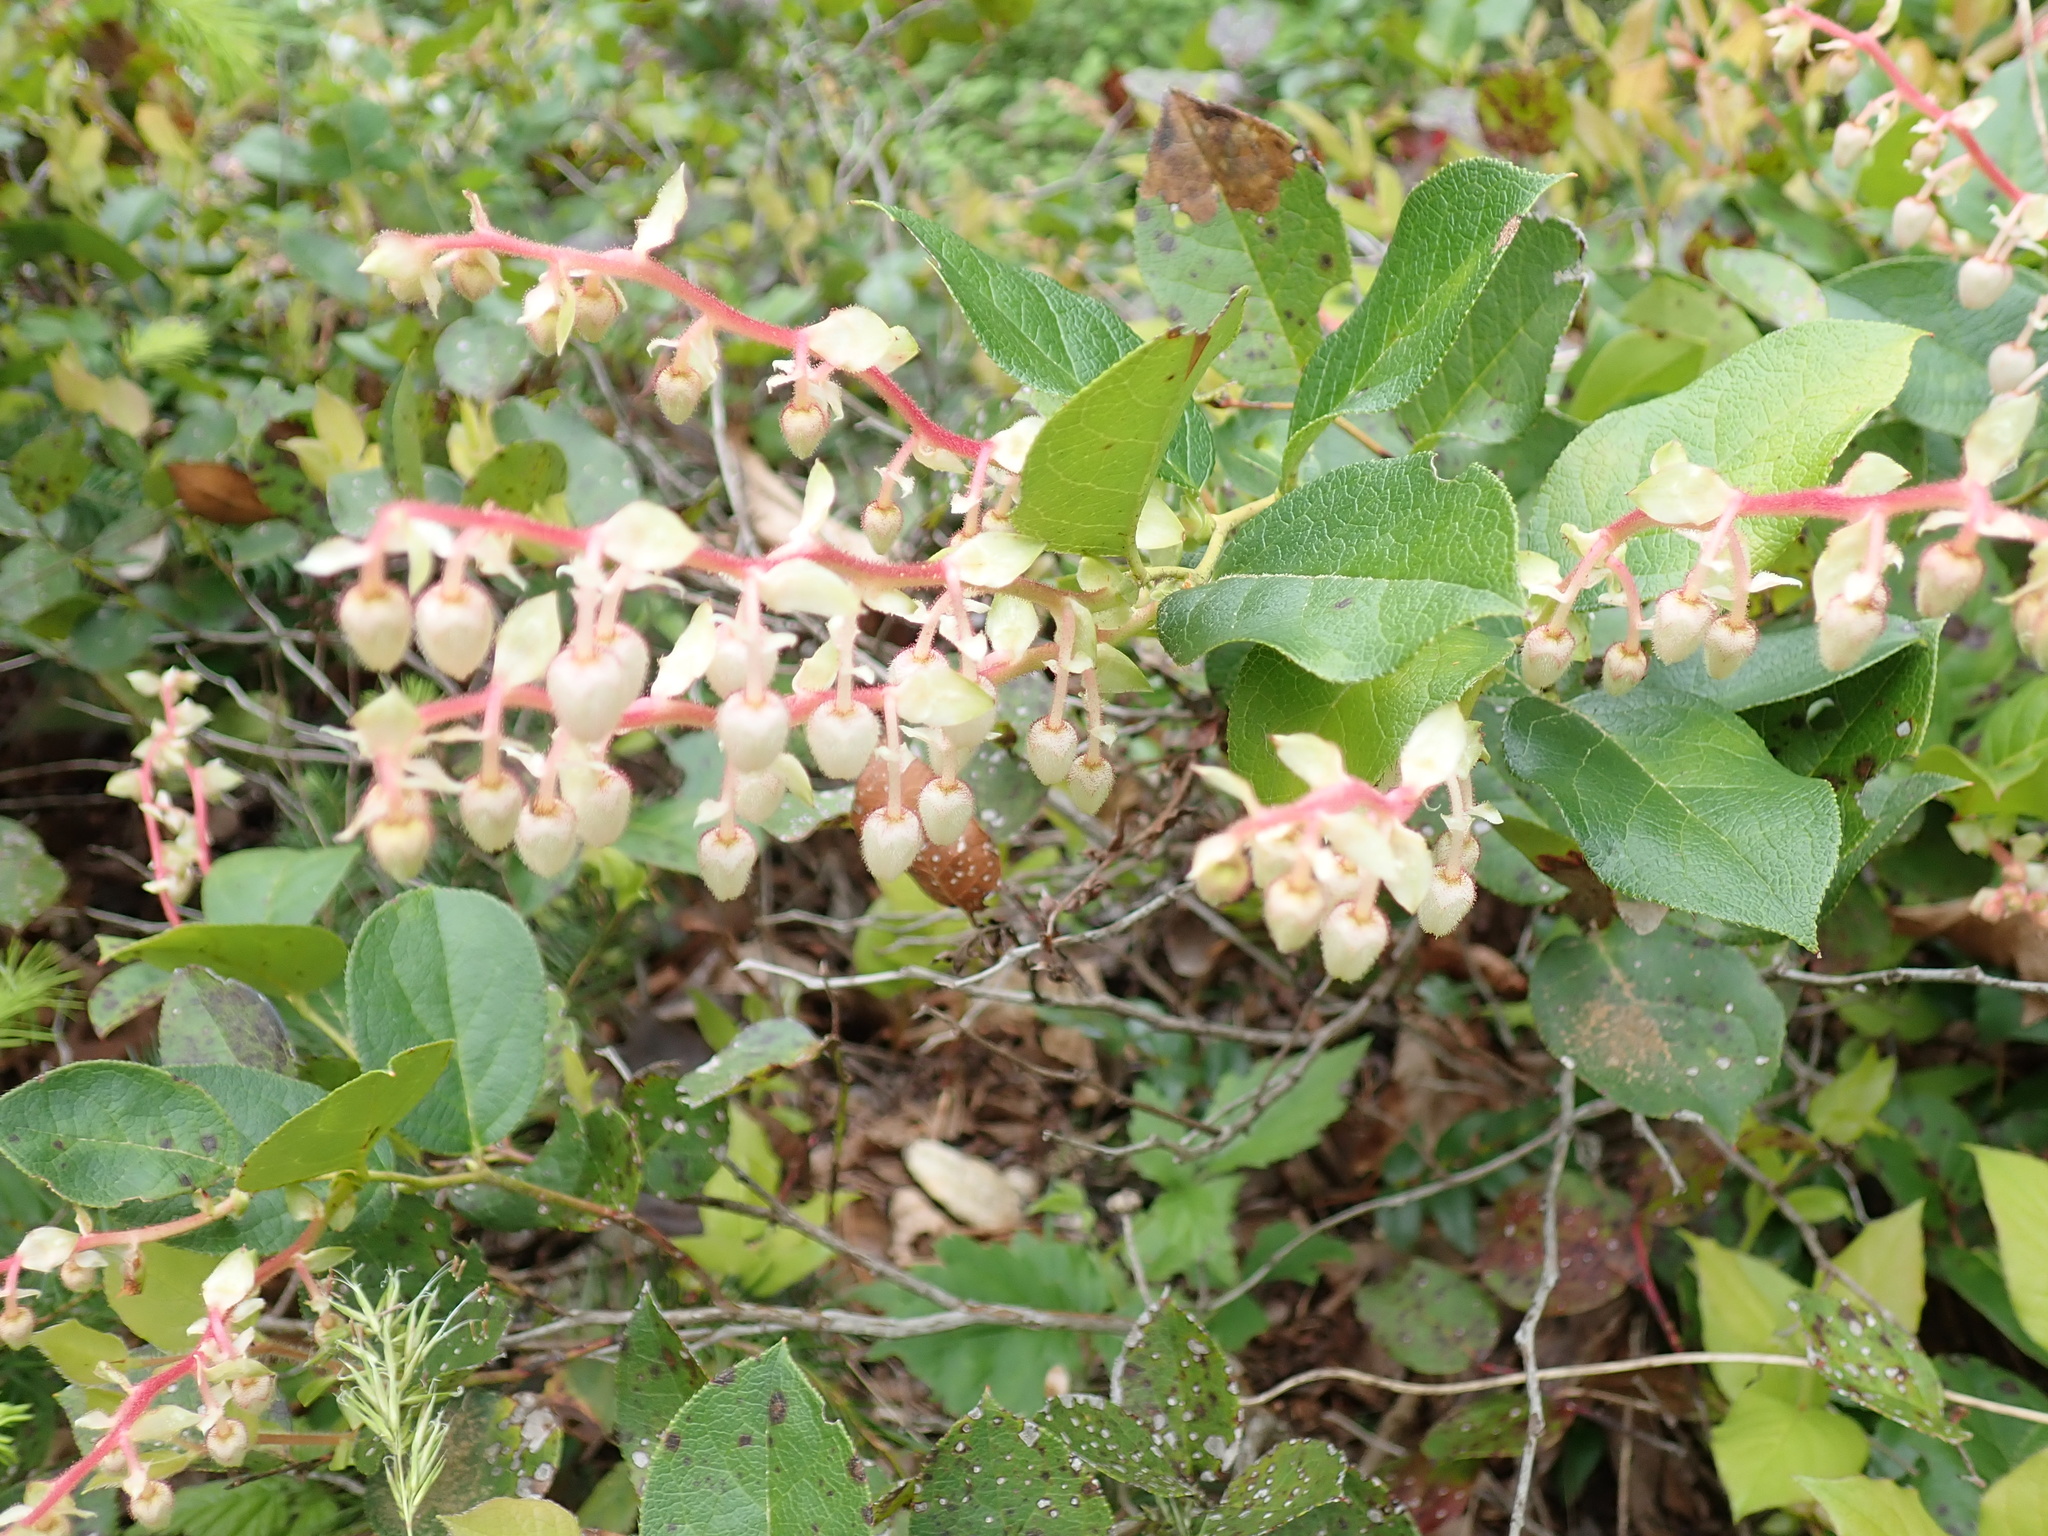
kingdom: Plantae
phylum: Tracheophyta
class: Magnoliopsida
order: Ericales
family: Ericaceae
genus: Gaultheria
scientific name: Gaultheria shallon
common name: Shallon
